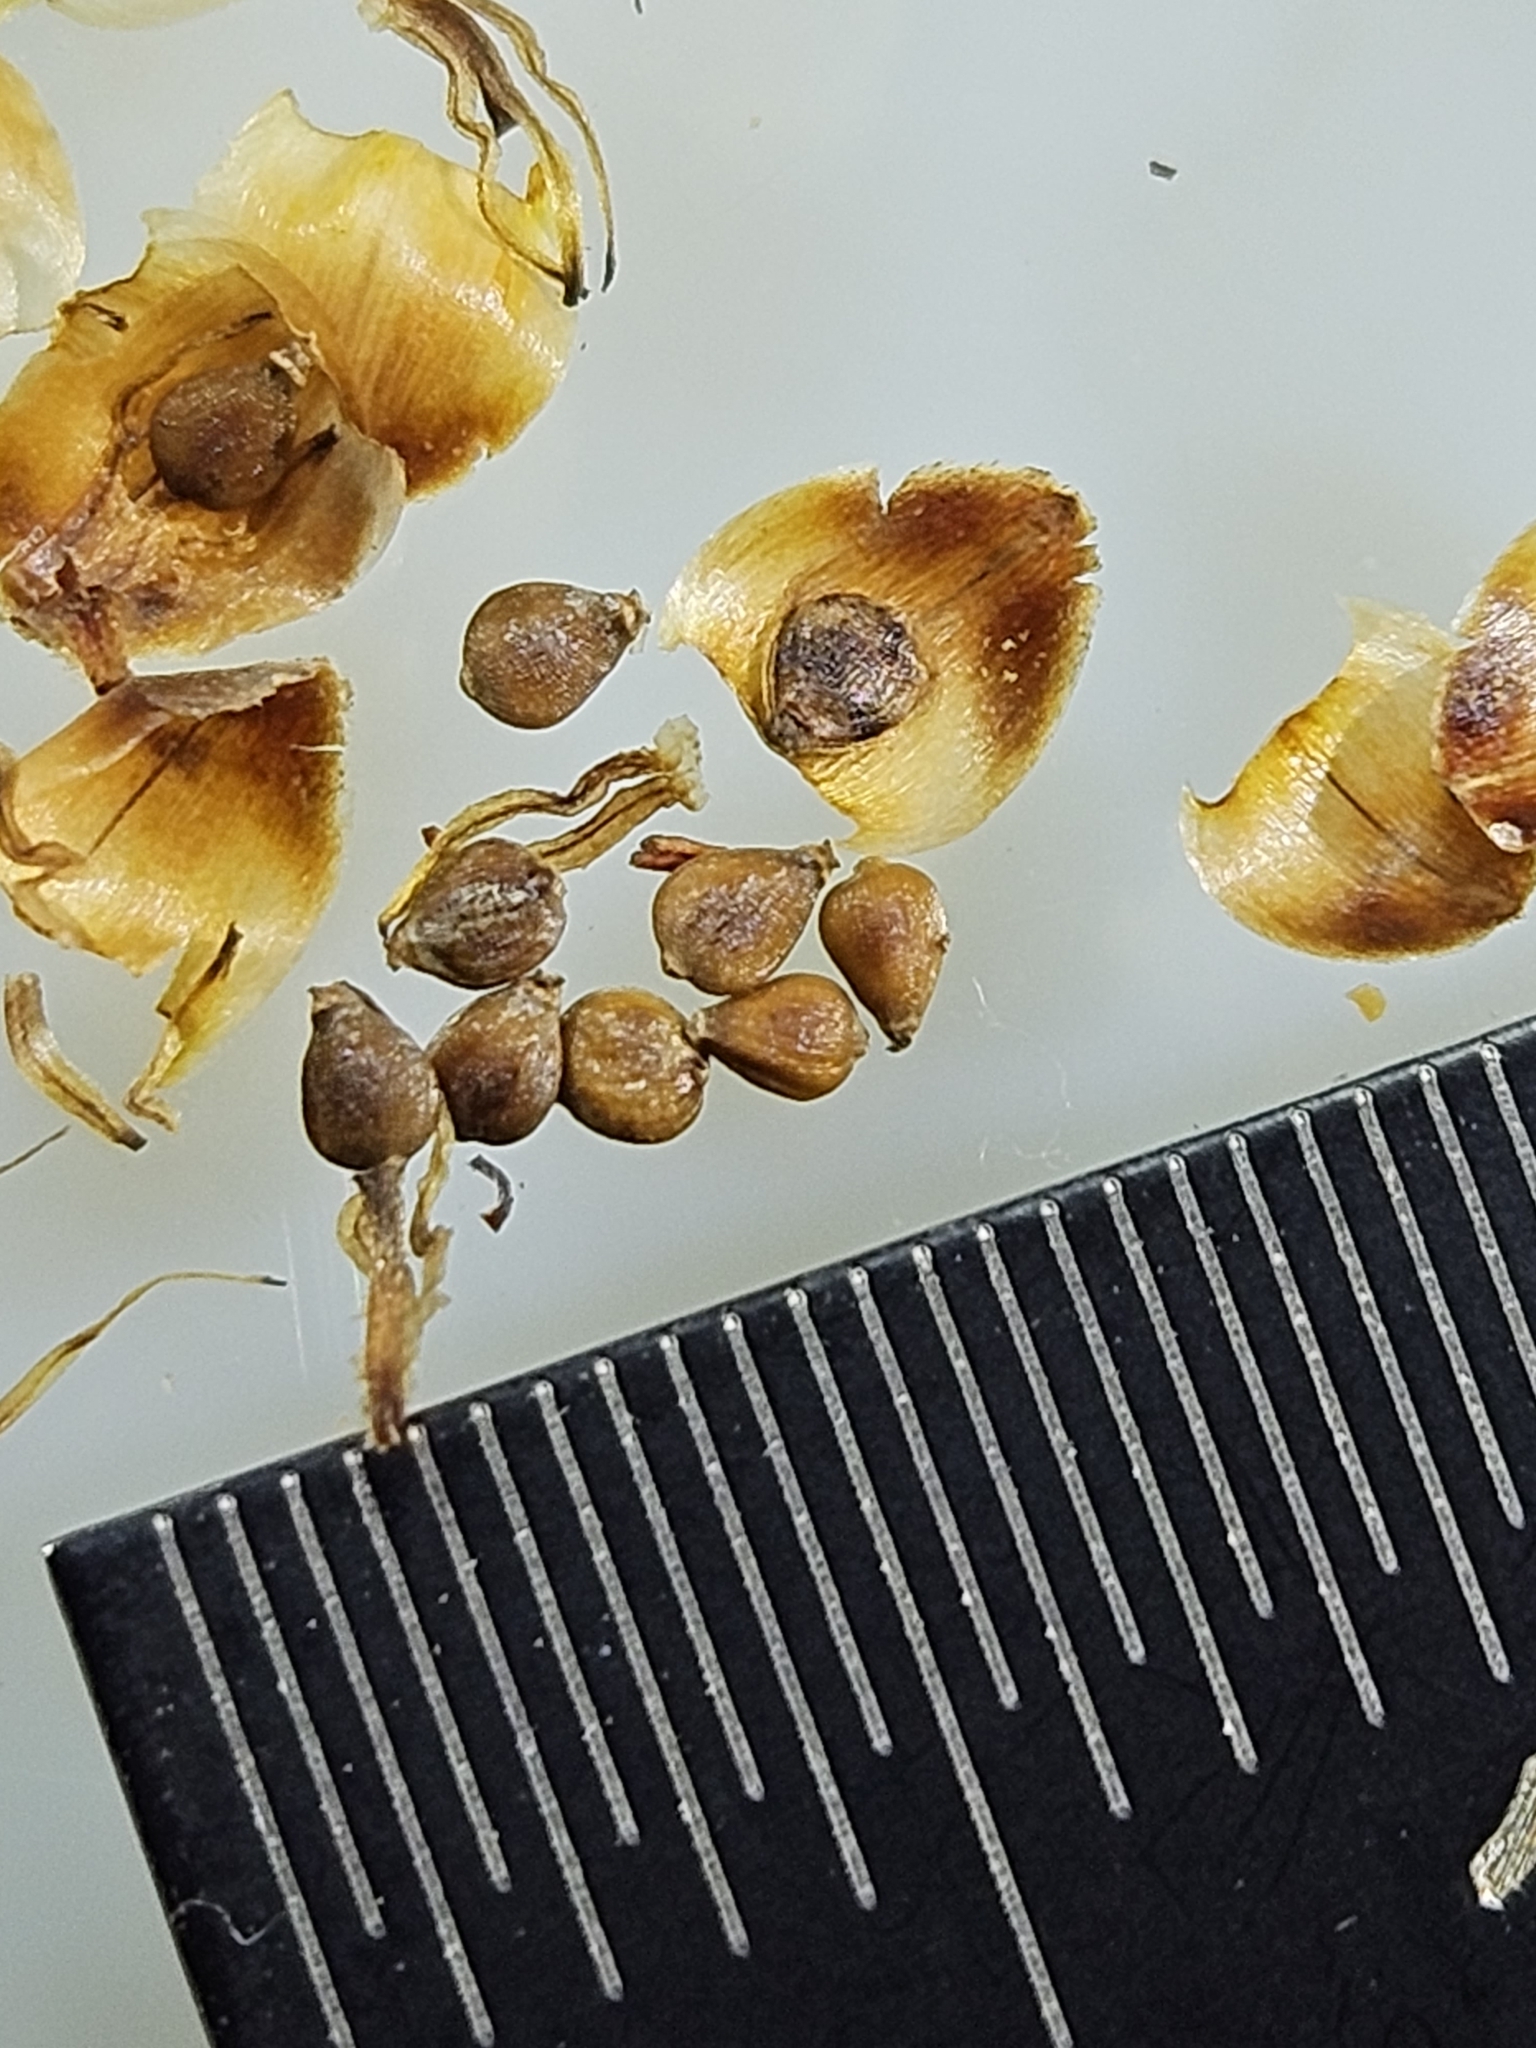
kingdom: Plantae
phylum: Tracheophyta
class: Liliopsida
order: Poales
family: Cyperaceae
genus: Fimbristylis
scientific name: Fimbristylis spadicea
